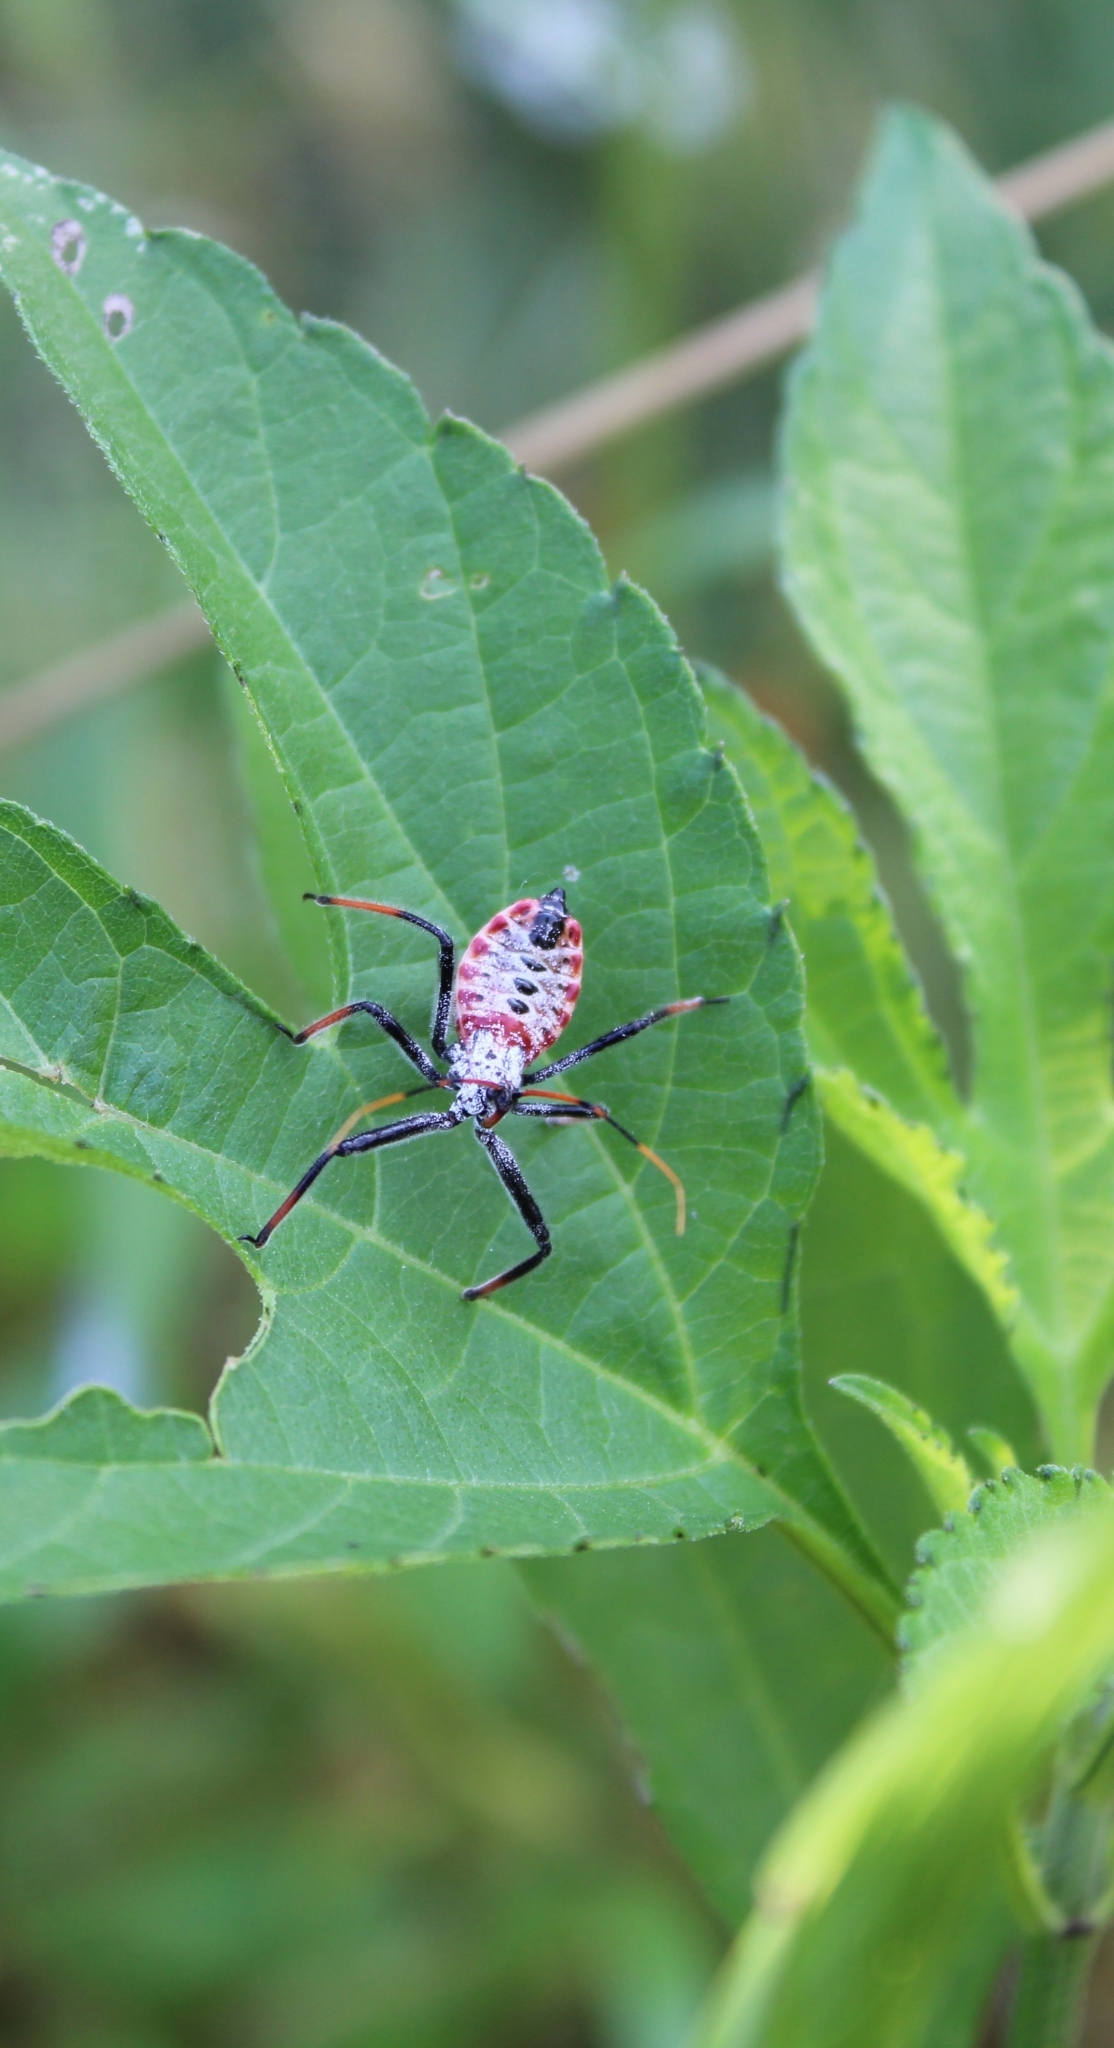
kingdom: Animalia
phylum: Arthropoda
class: Insecta
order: Hemiptera
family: Reduviidae
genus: Arilus
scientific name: Arilus cristatus
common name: North american wheel bug
